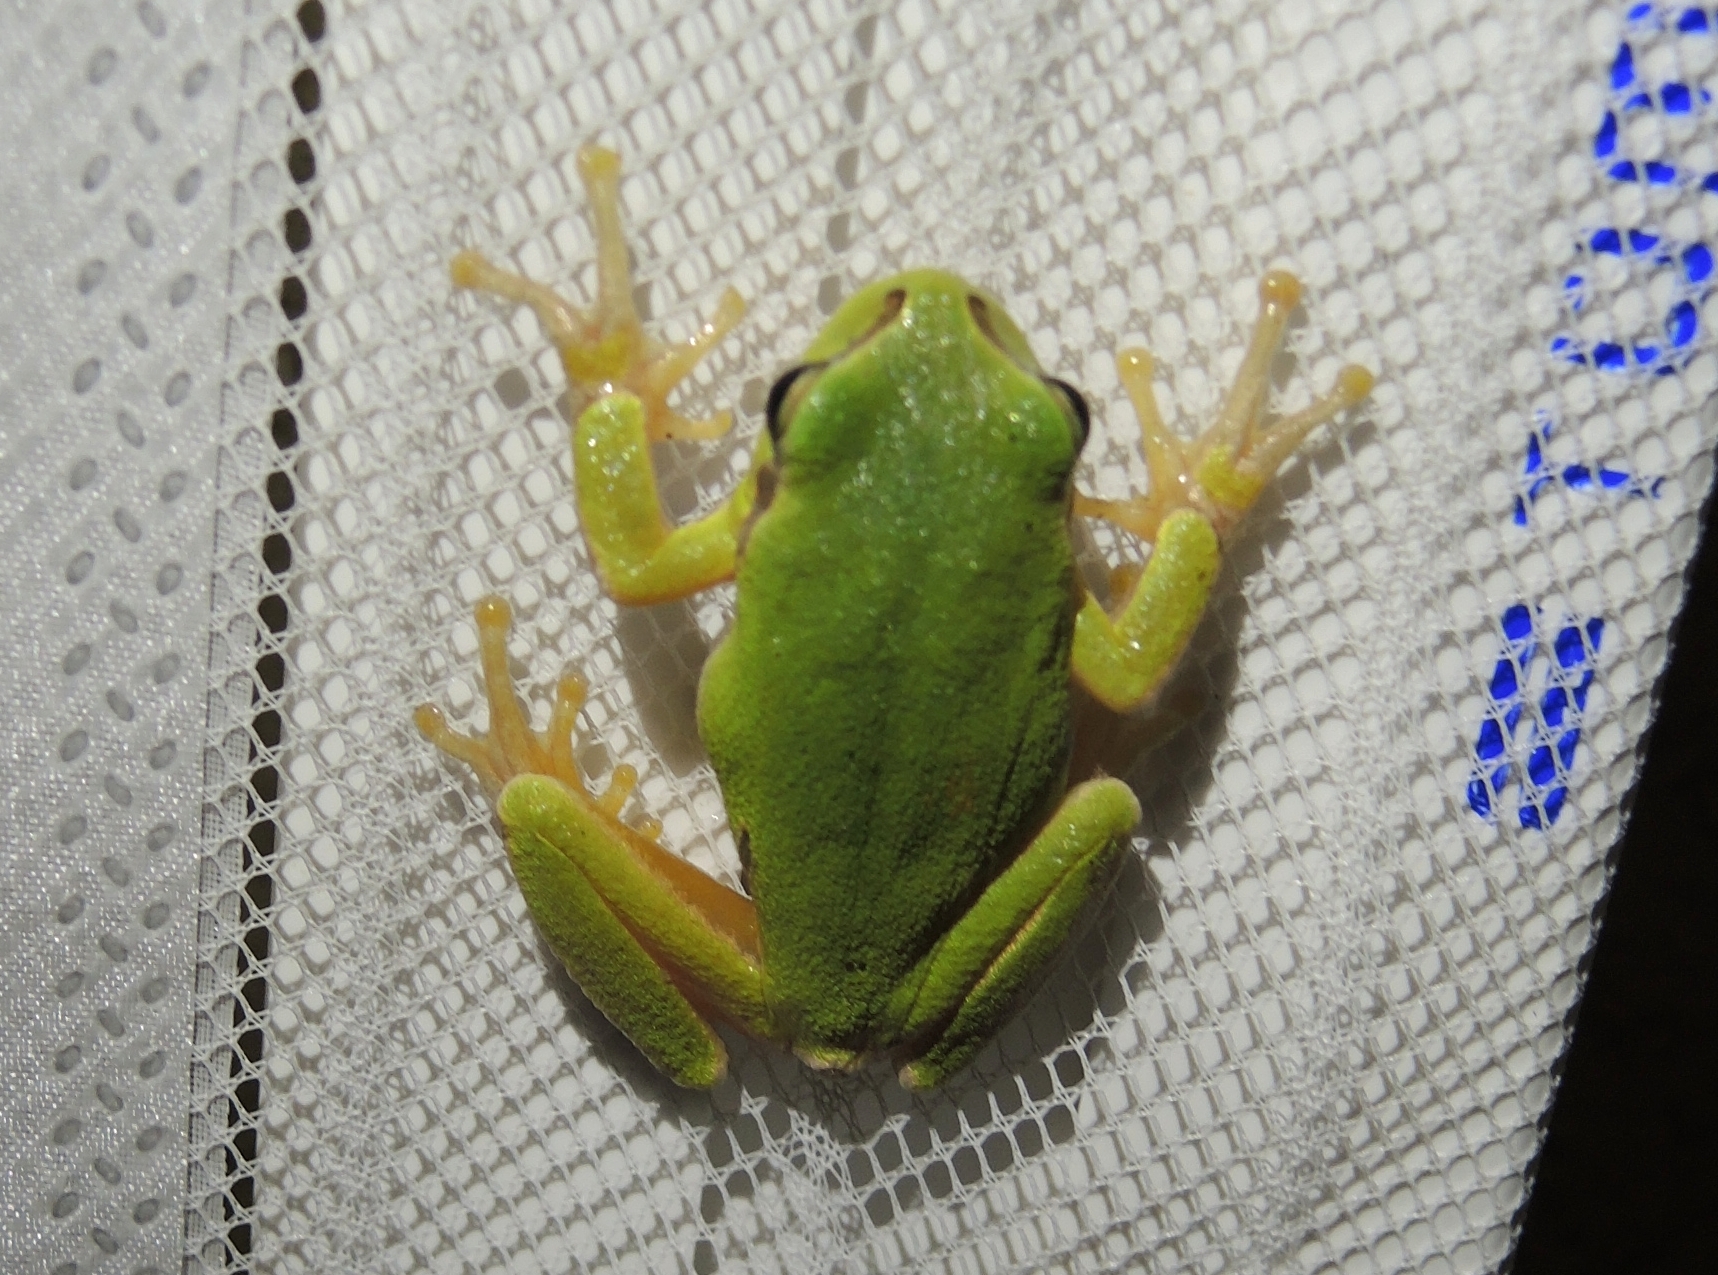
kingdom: Animalia
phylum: Chordata
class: Amphibia
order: Anura
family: Hylidae
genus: Hyla
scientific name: Hyla orientalis
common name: Caucasian treefrog
